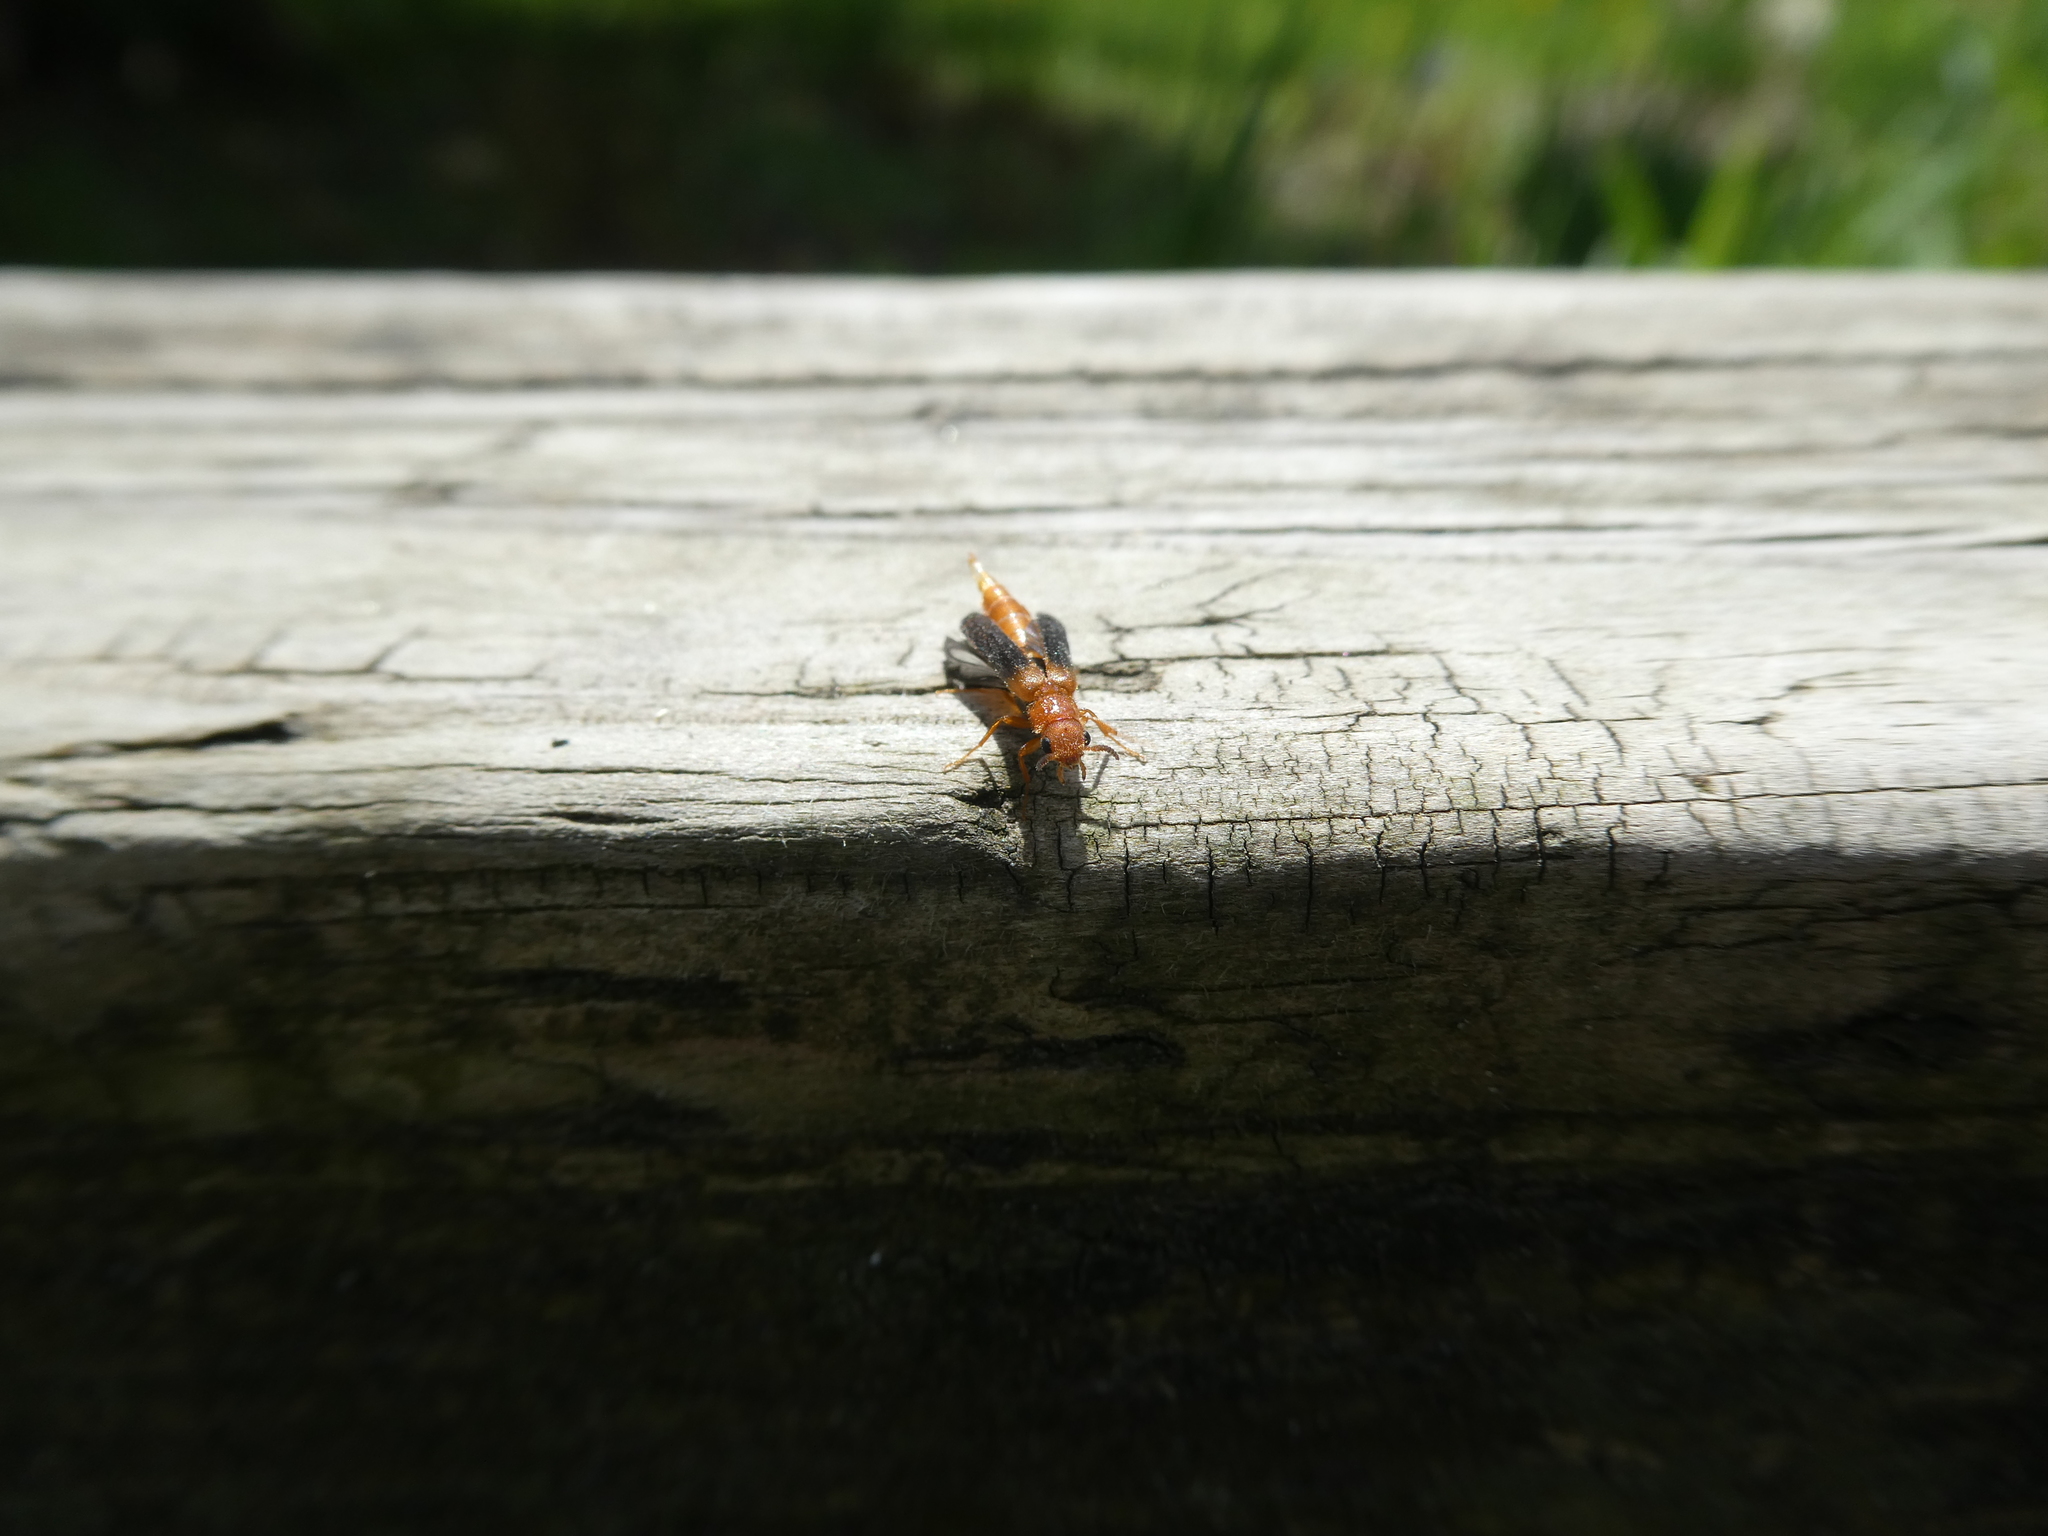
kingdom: Animalia
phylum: Arthropoda
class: Insecta
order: Coleoptera
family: Lymexylidae
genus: Elateroides
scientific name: Elateroides lugubris
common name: Sapwood timberworm
